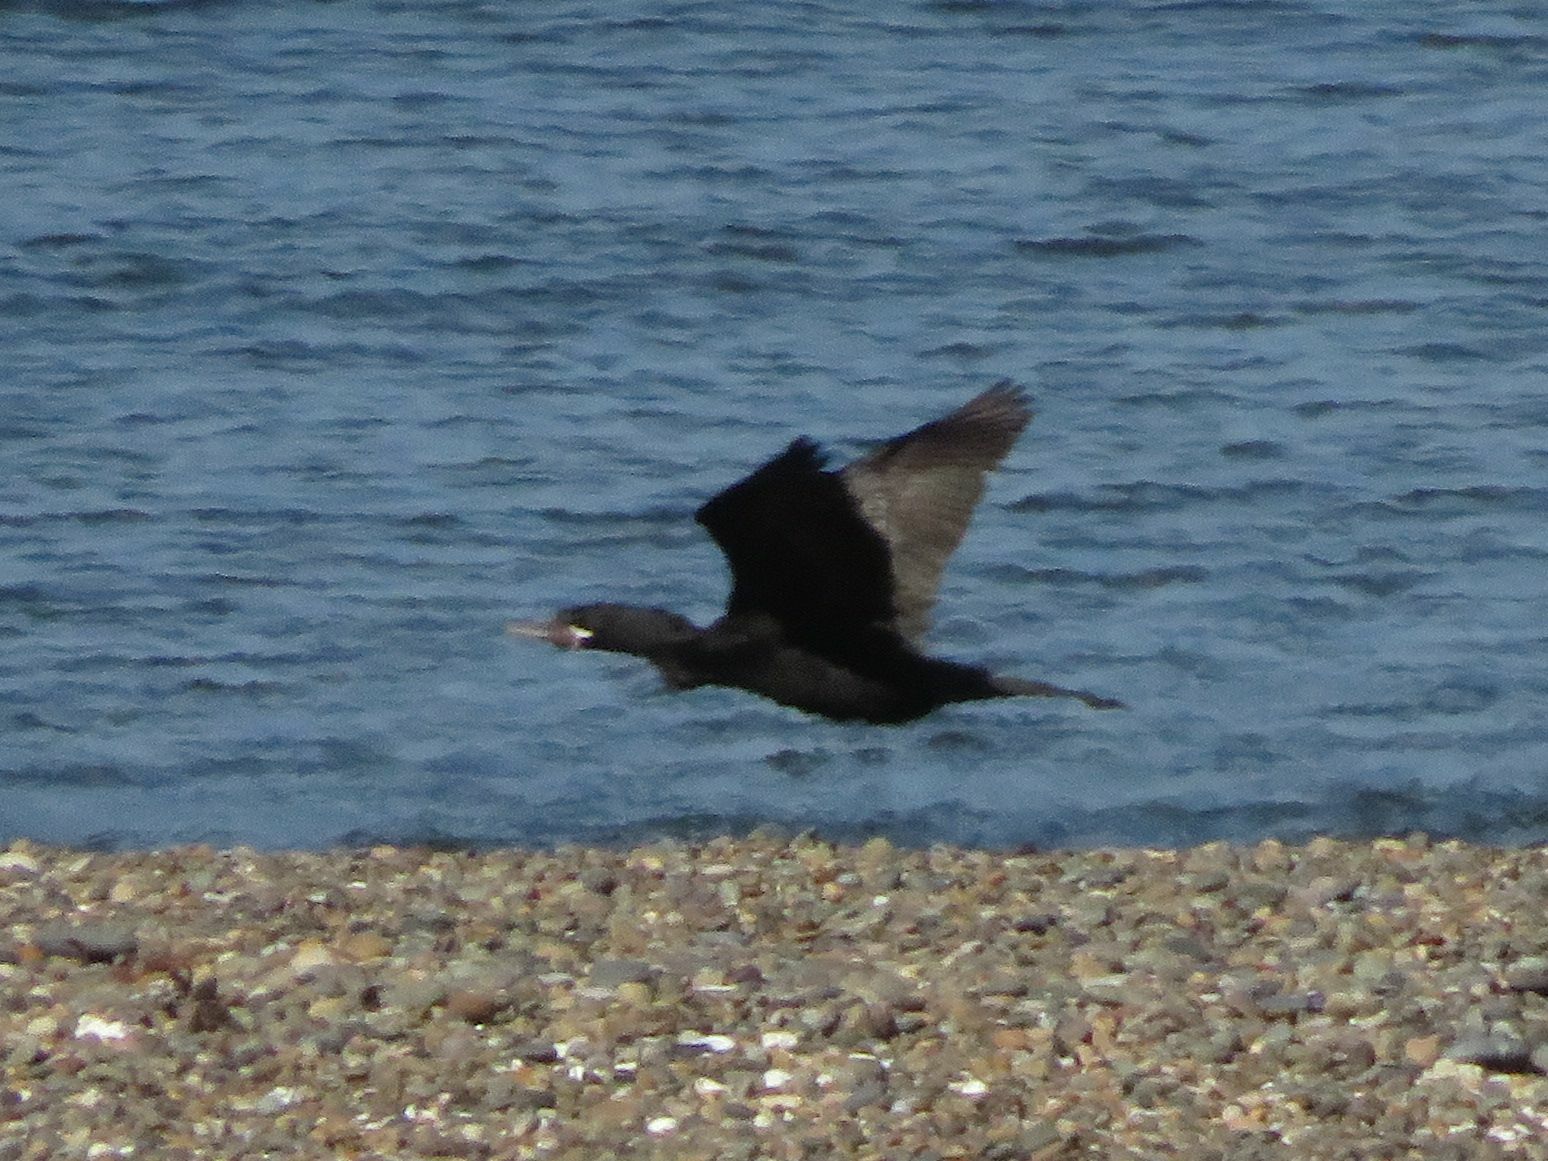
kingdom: Animalia
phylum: Chordata
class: Aves
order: Suliformes
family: Phalacrocoracidae
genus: Phalacrocorax
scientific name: Phalacrocorax brasilianus
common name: Neotropic cormorant
